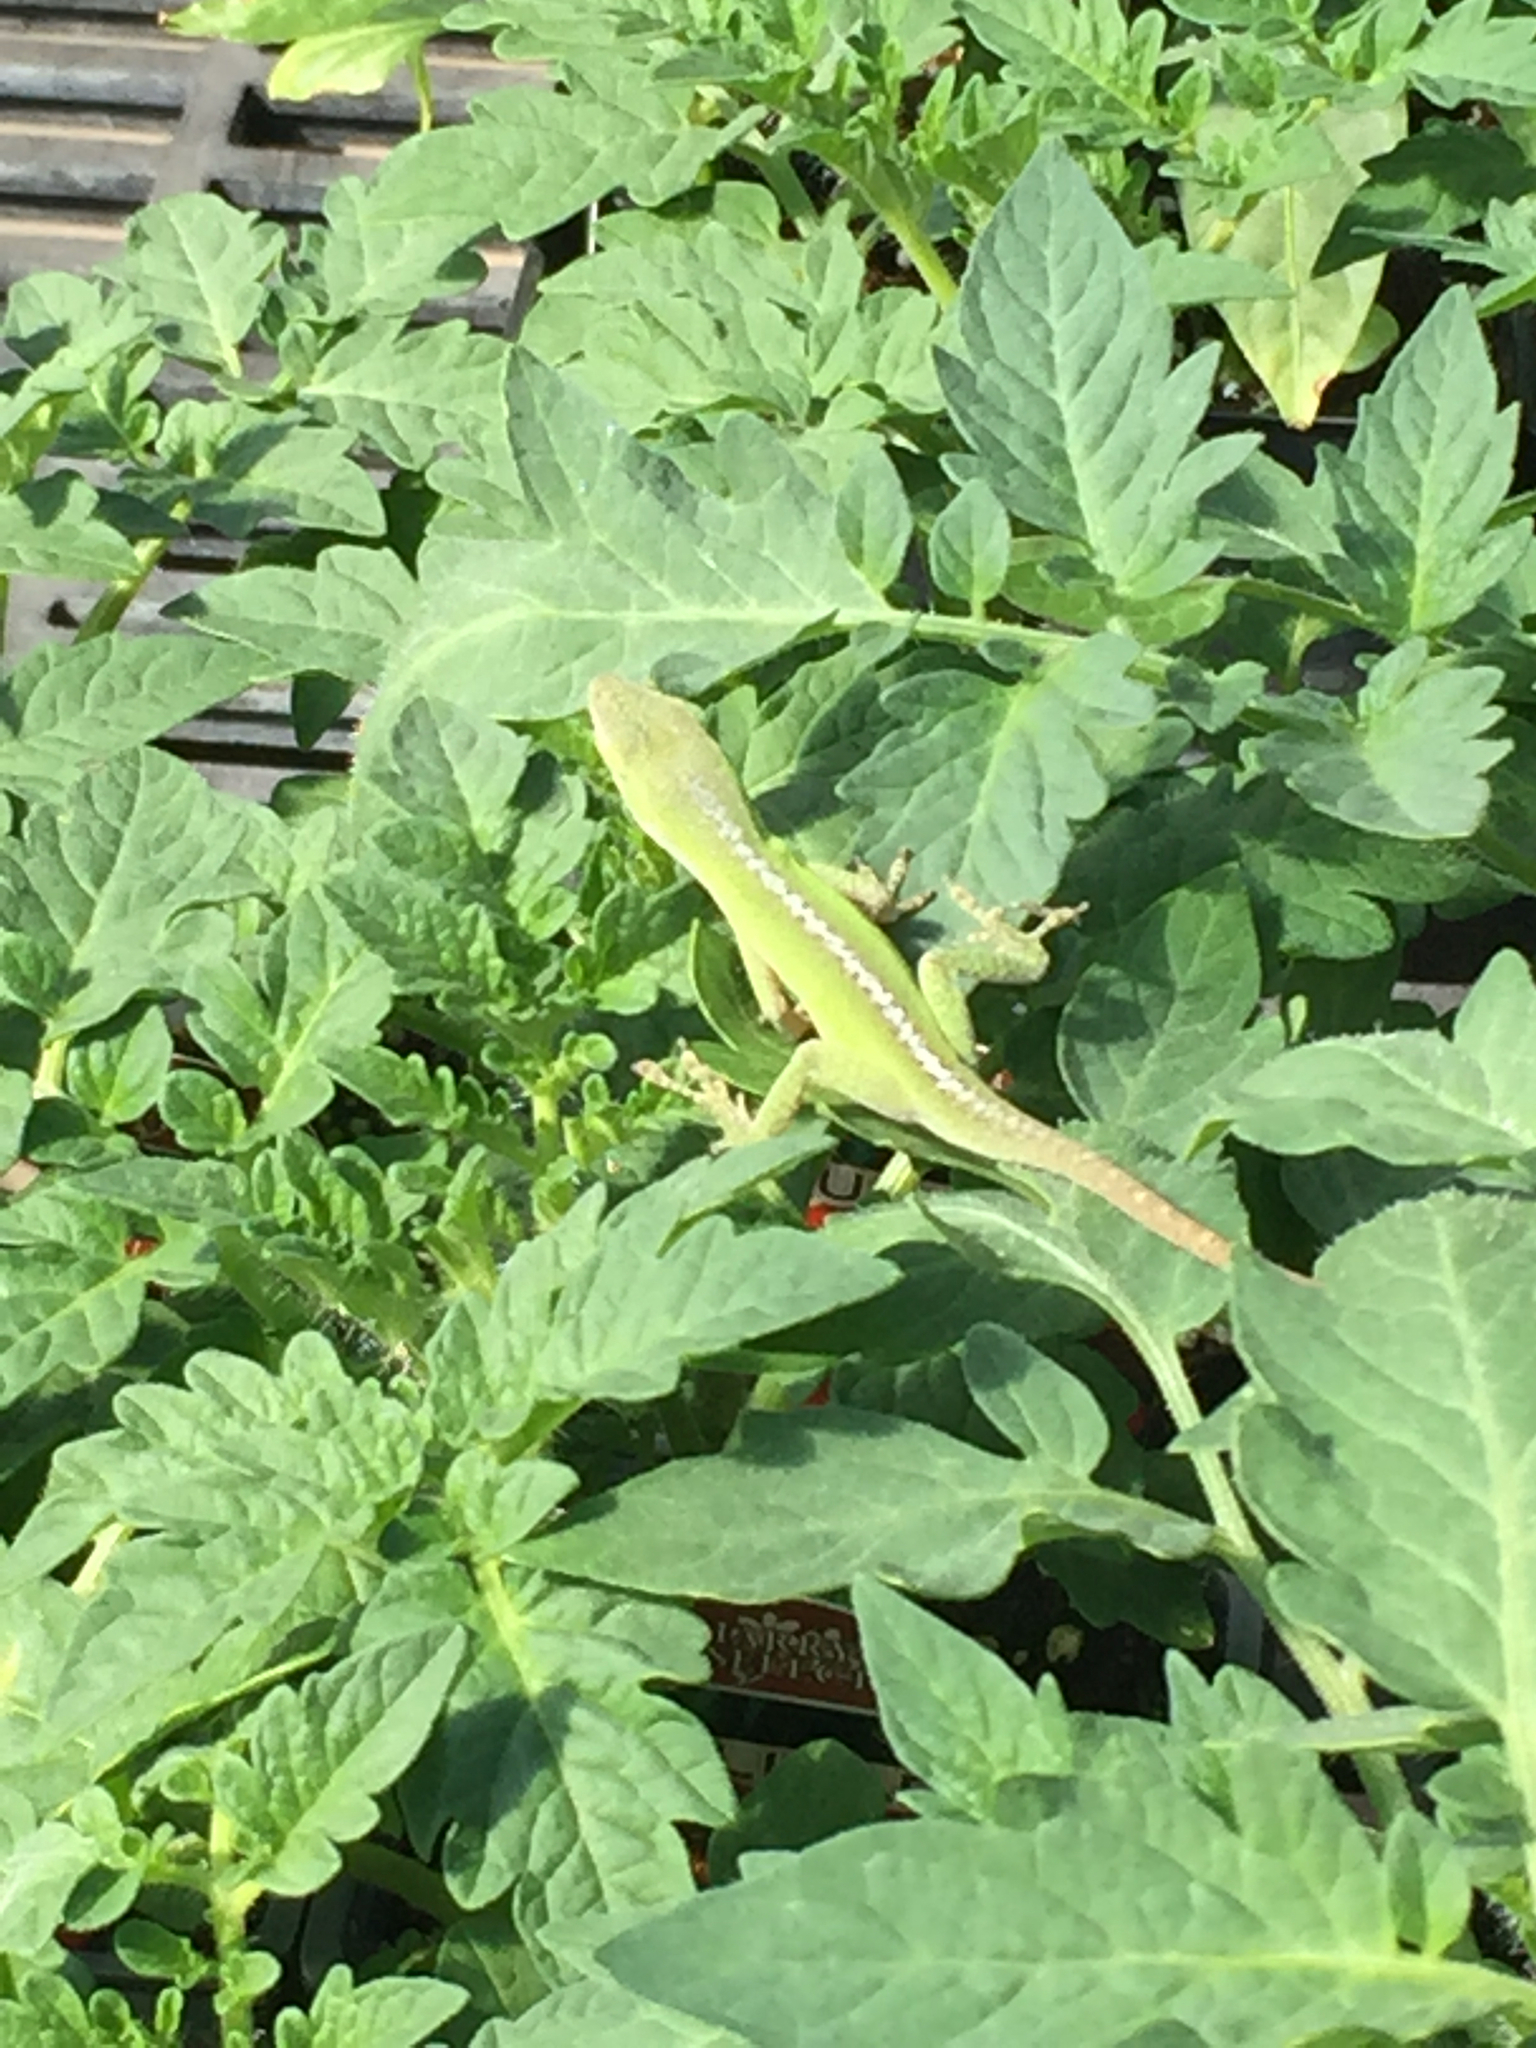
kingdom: Animalia
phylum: Chordata
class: Squamata
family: Dactyloidae
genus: Anolis
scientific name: Anolis carolinensis
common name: Green anole
